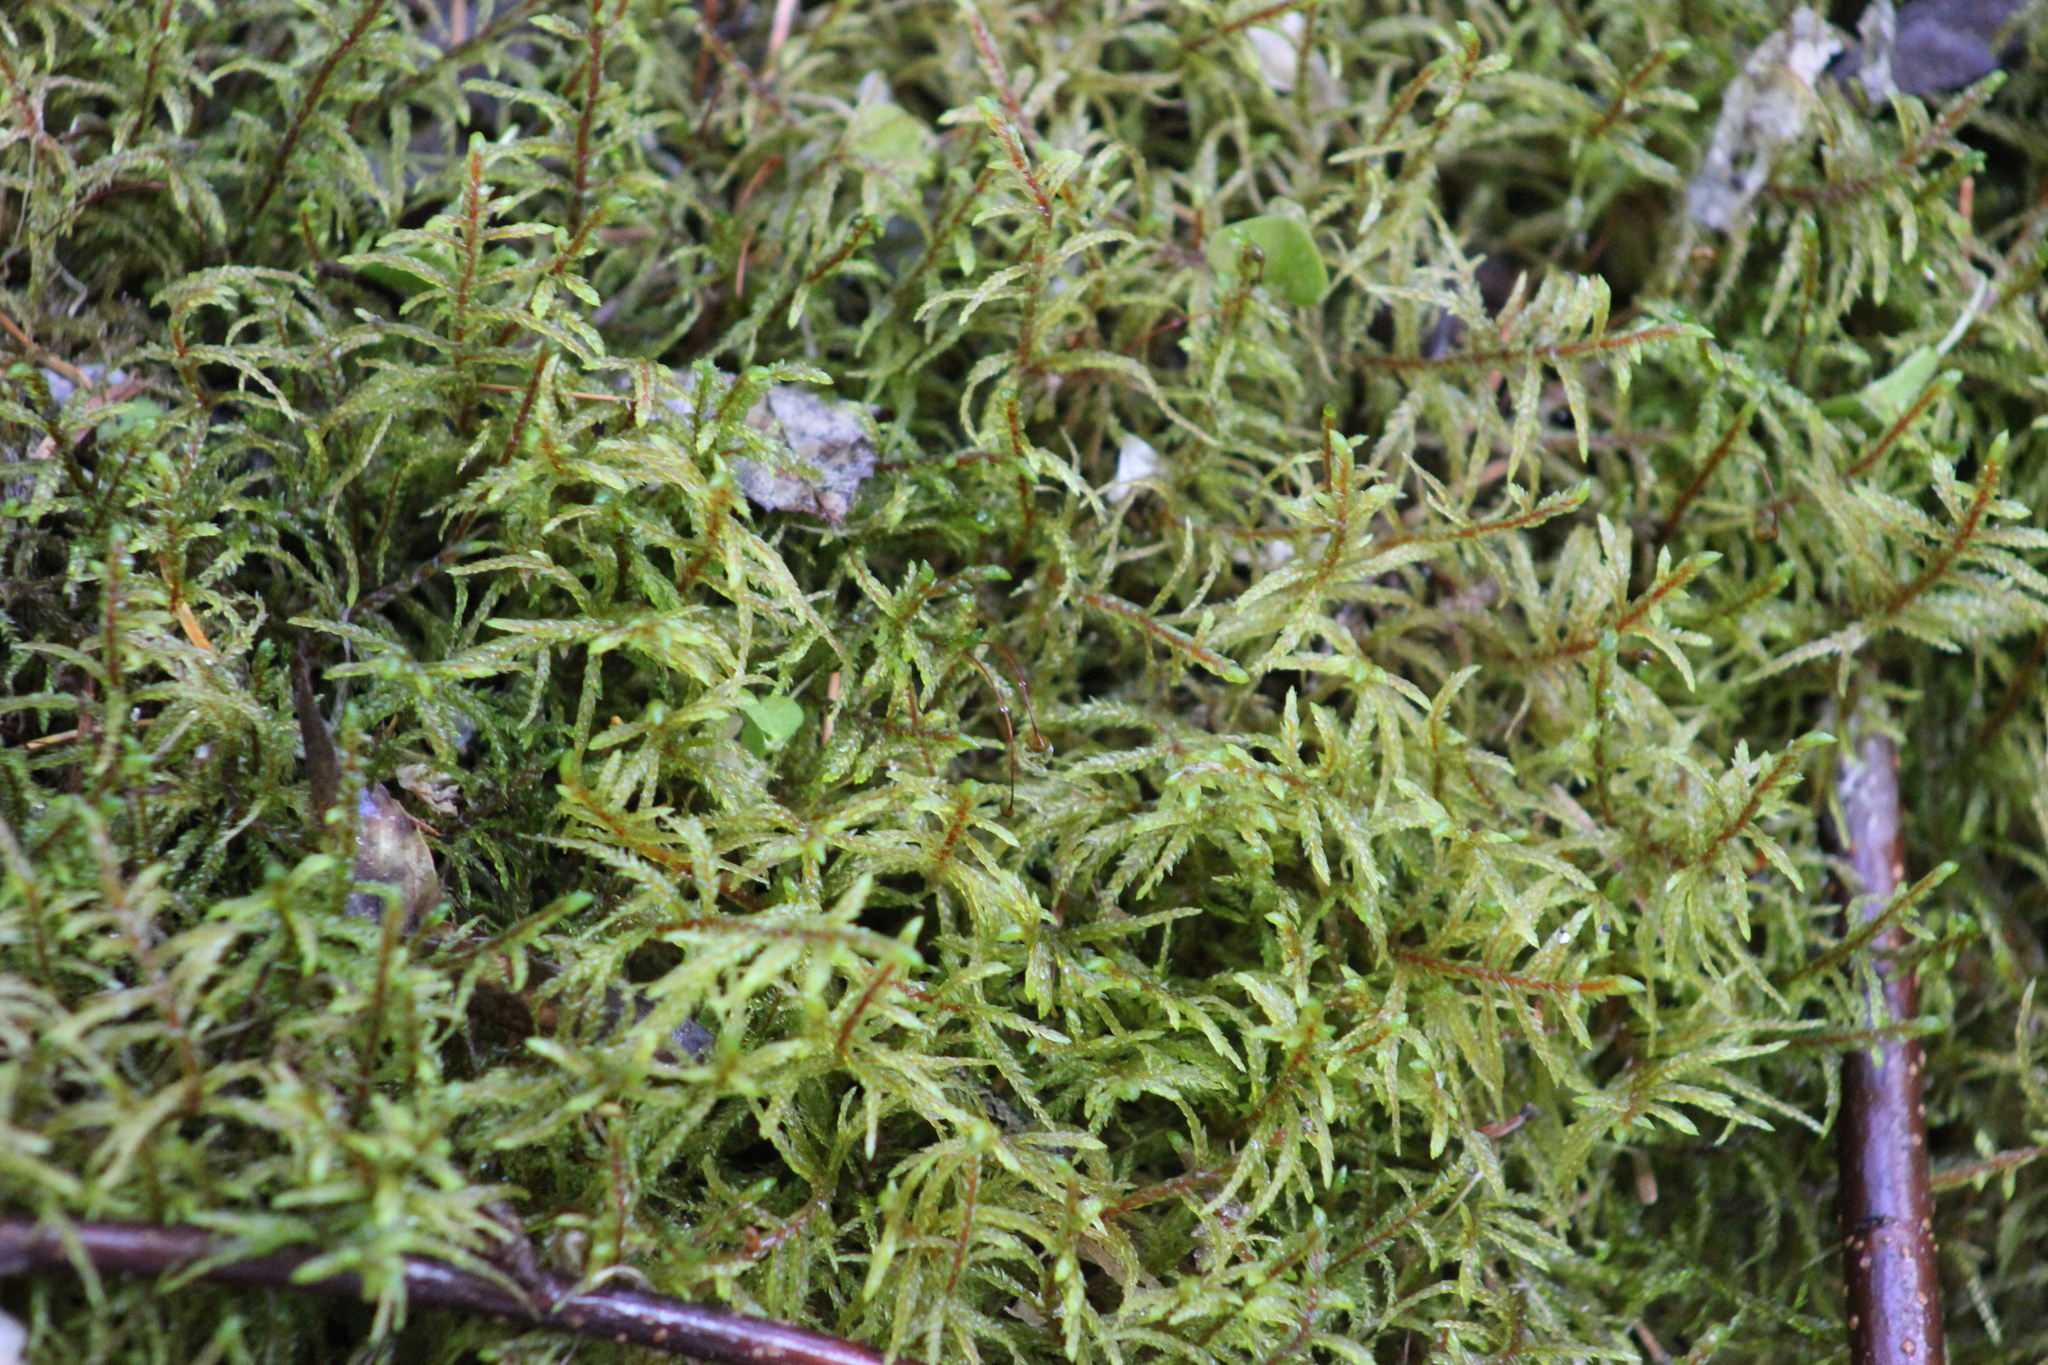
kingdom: Plantae
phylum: Bryophyta
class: Bryopsida
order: Hypnales
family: Hylocomiaceae
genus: Pleurozium
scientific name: Pleurozium schreberi
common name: Red-stemmed feather moss
